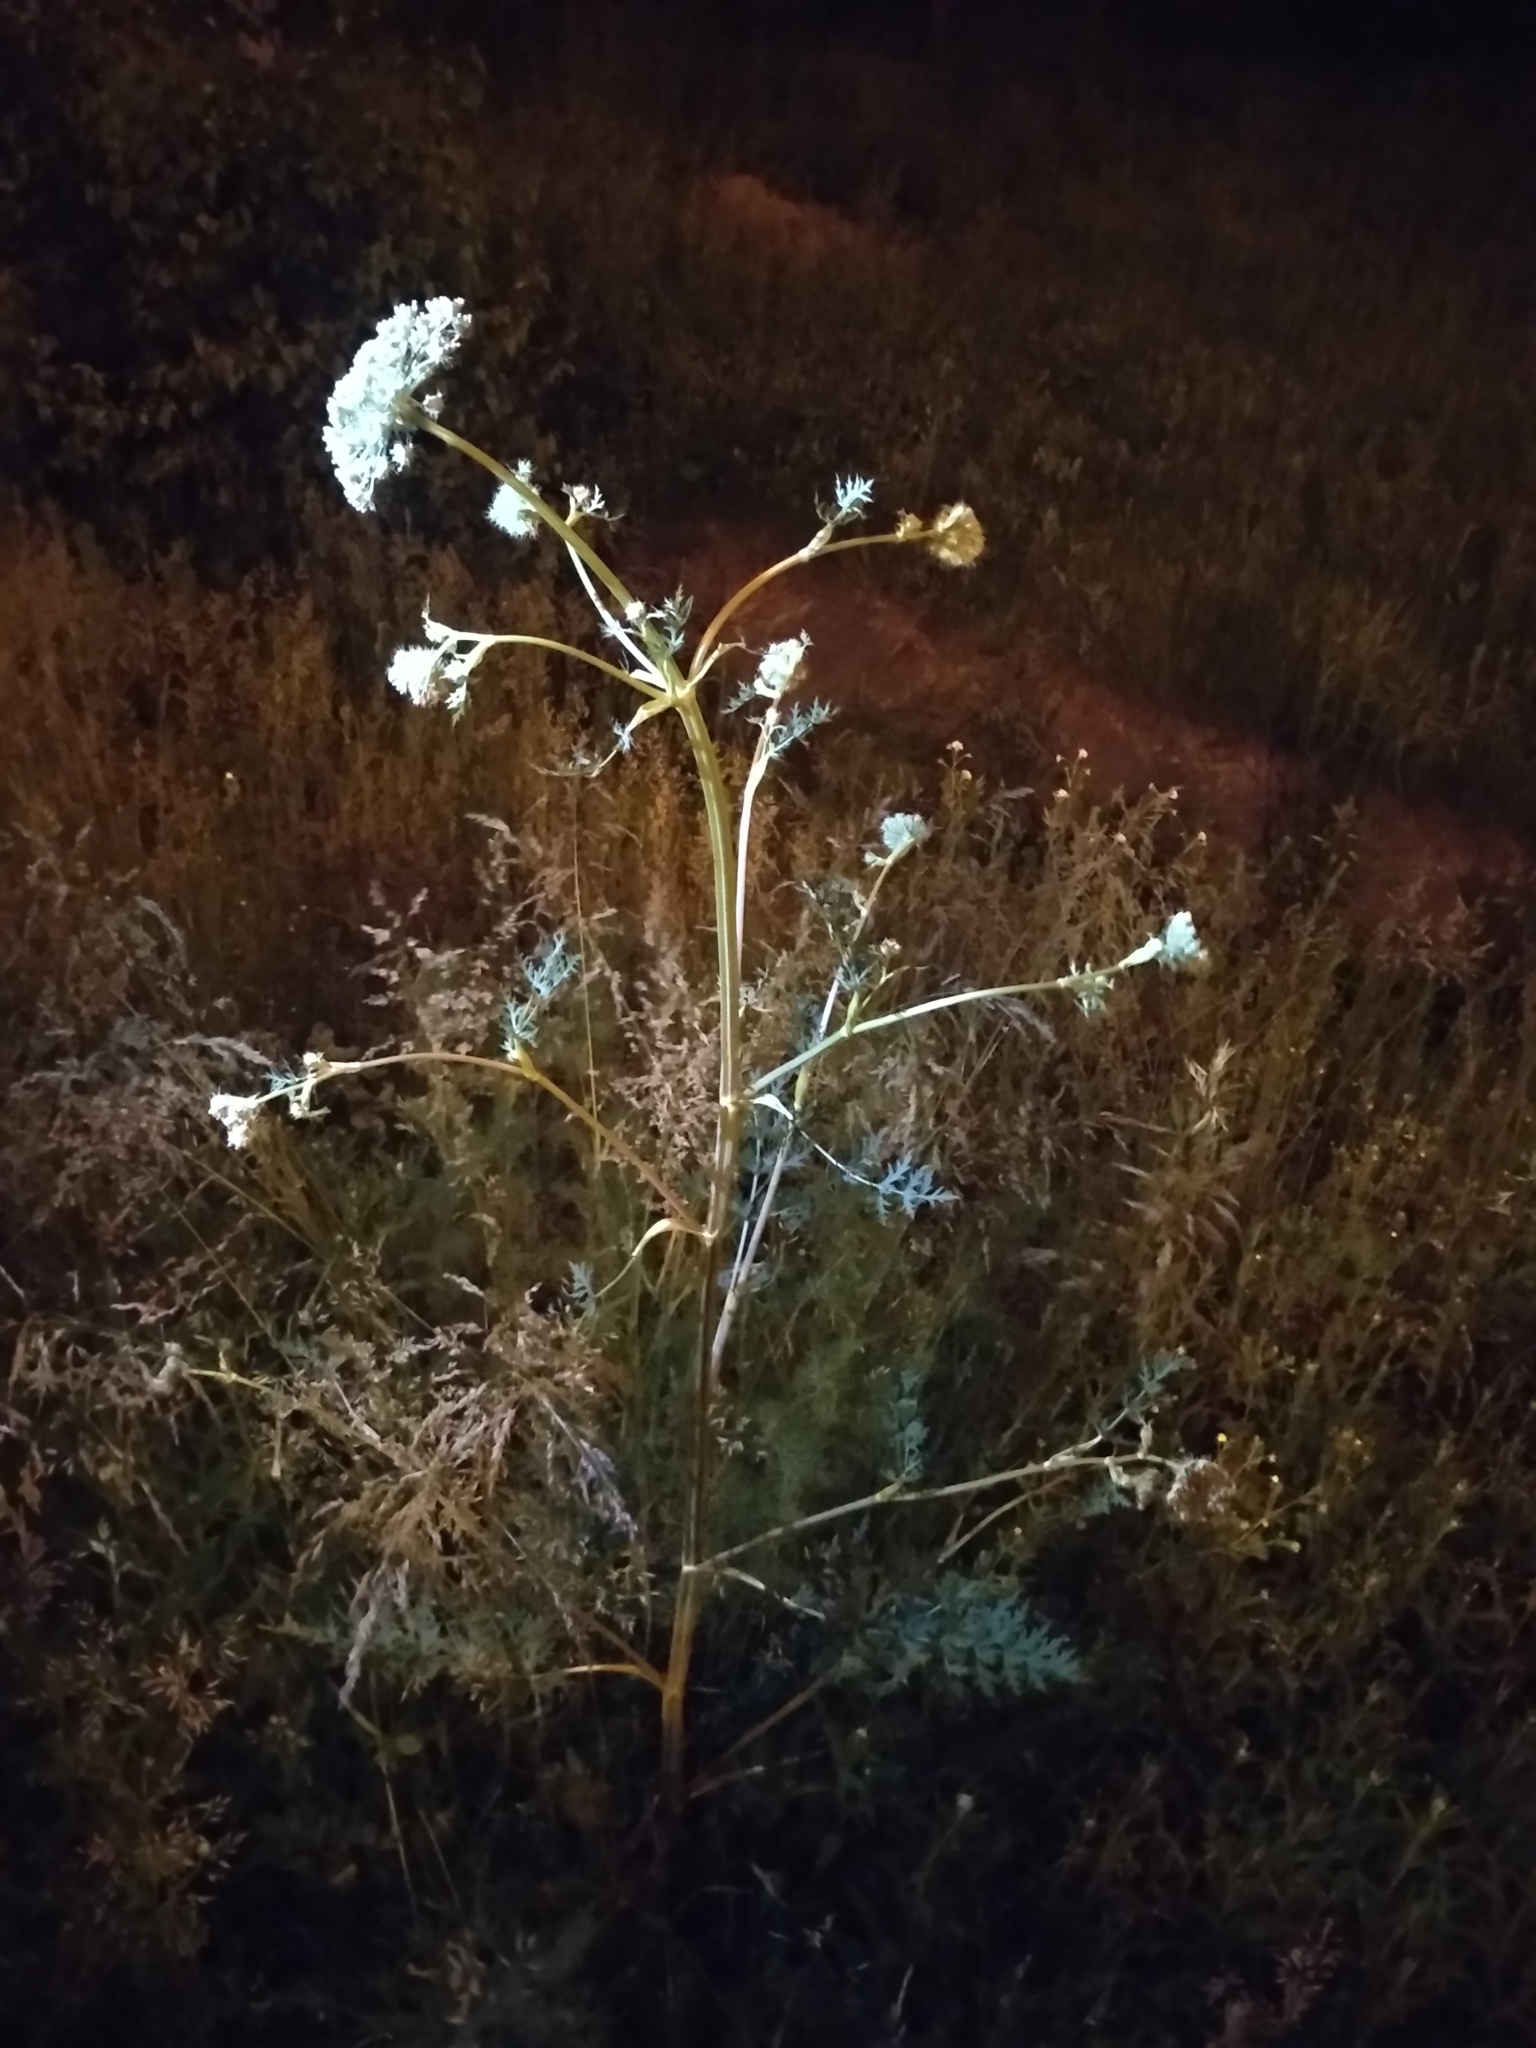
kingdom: Plantae
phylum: Tracheophyta
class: Magnoliopsida
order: Apiales
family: Apiaceae
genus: Seseli
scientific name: Seseli libanotis
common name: Mooncarrot
